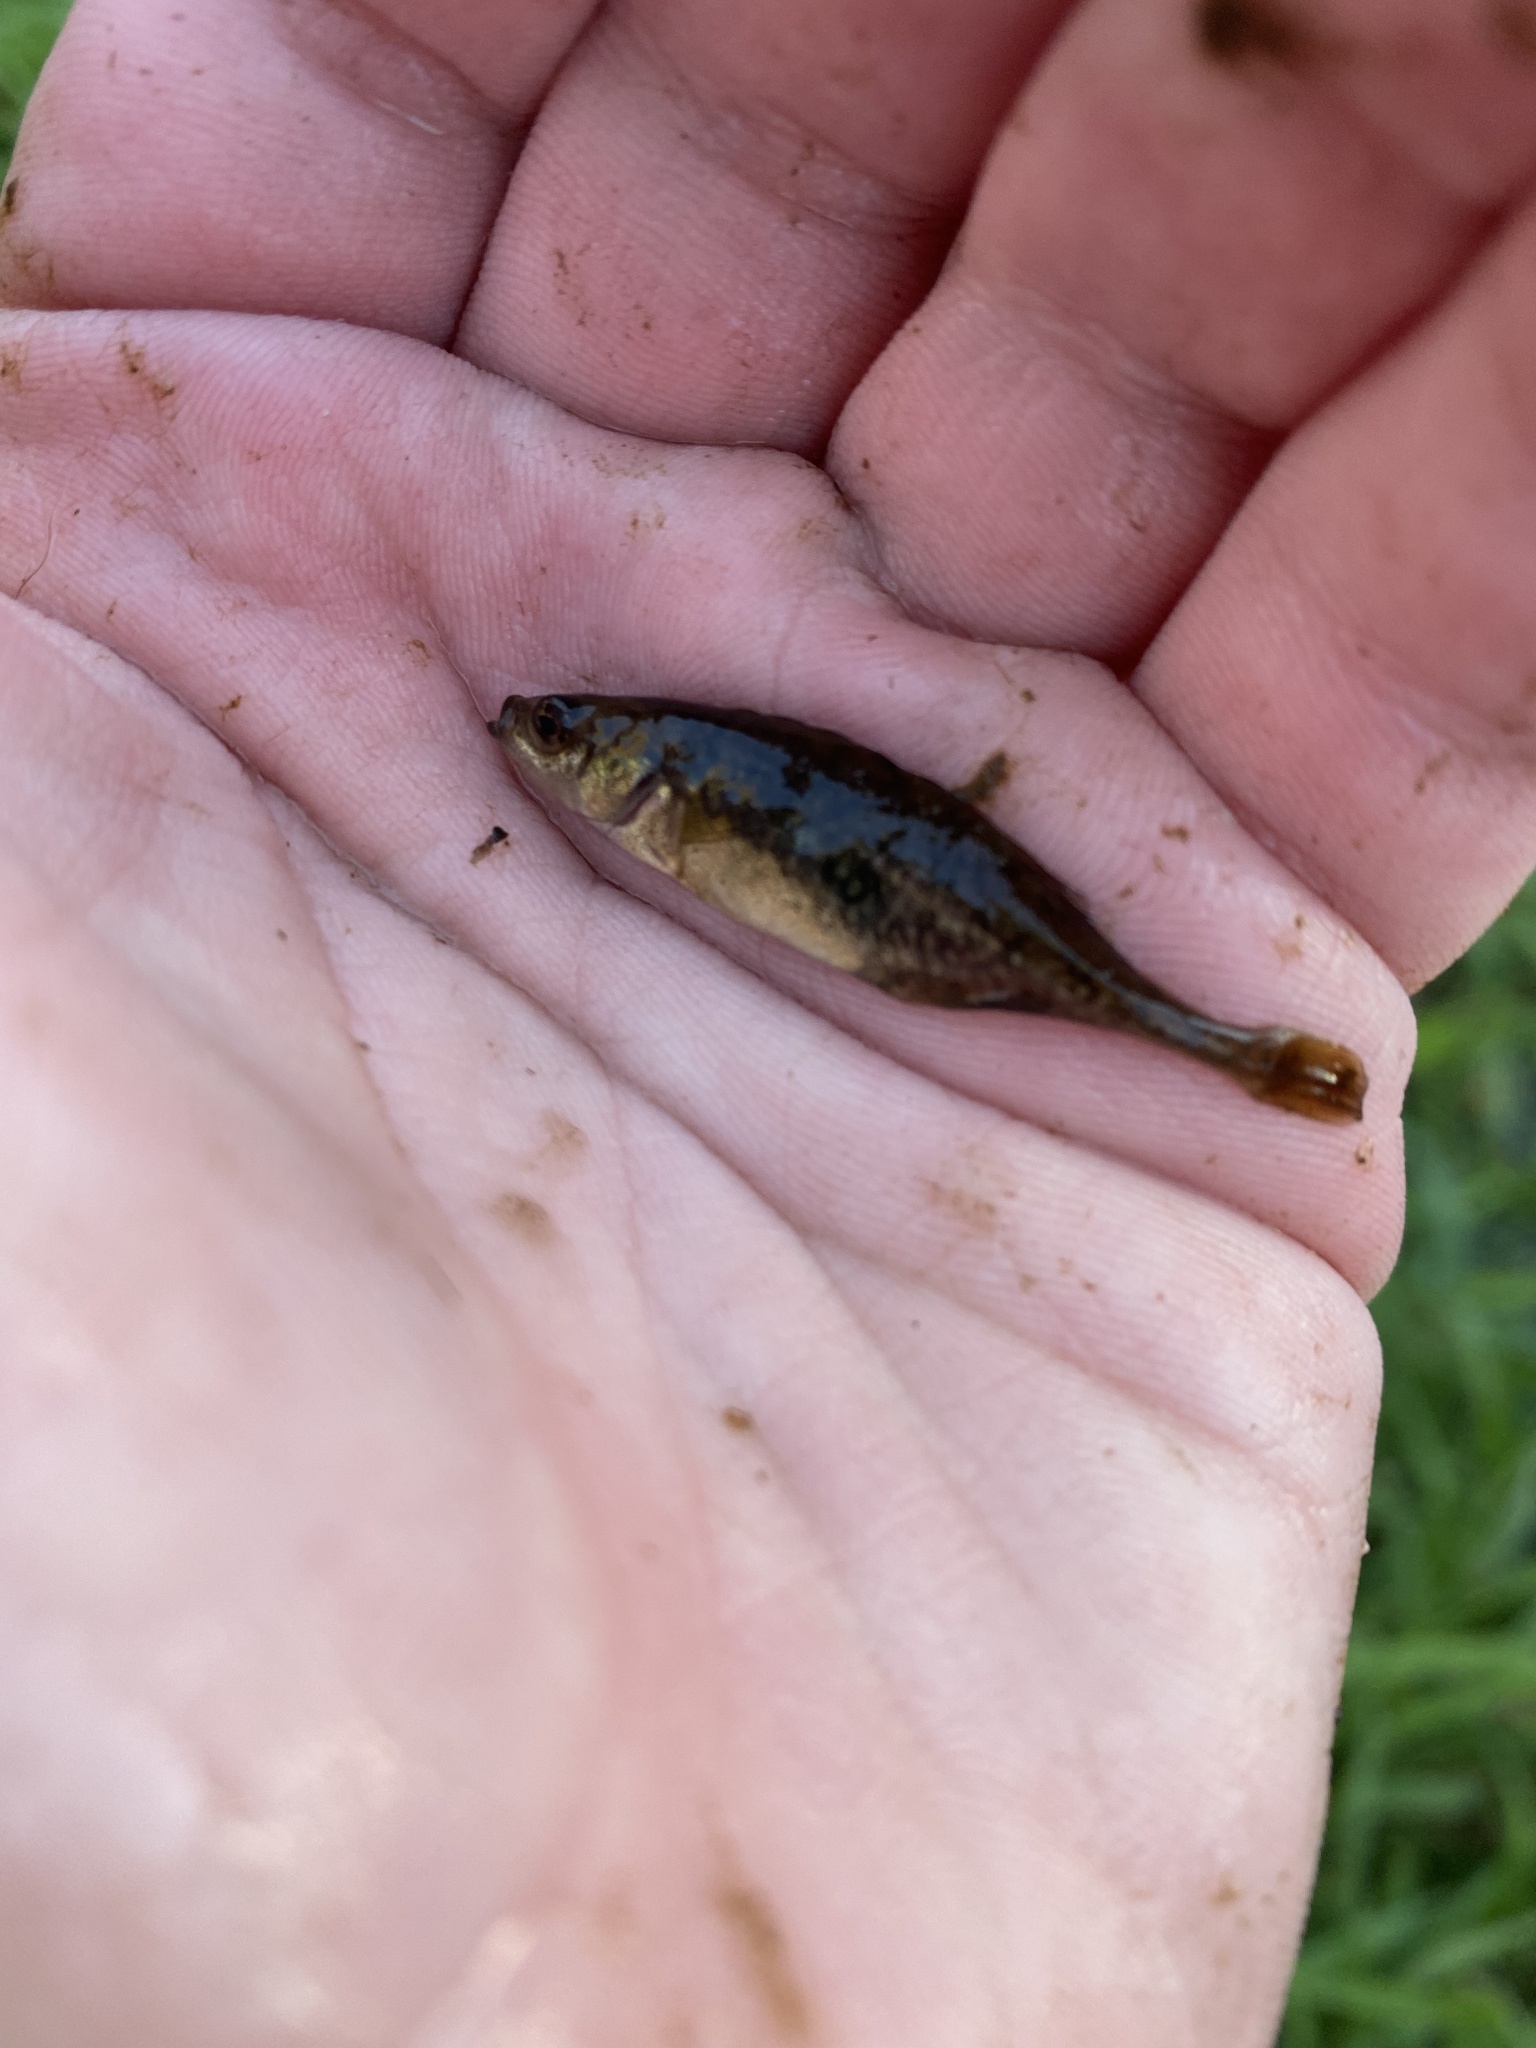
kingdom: Animalia
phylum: Chordata
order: Gasterosteiformes
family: Gasterosteidae
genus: Culaea
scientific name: Culaea inconstans
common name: Brook stickleback
